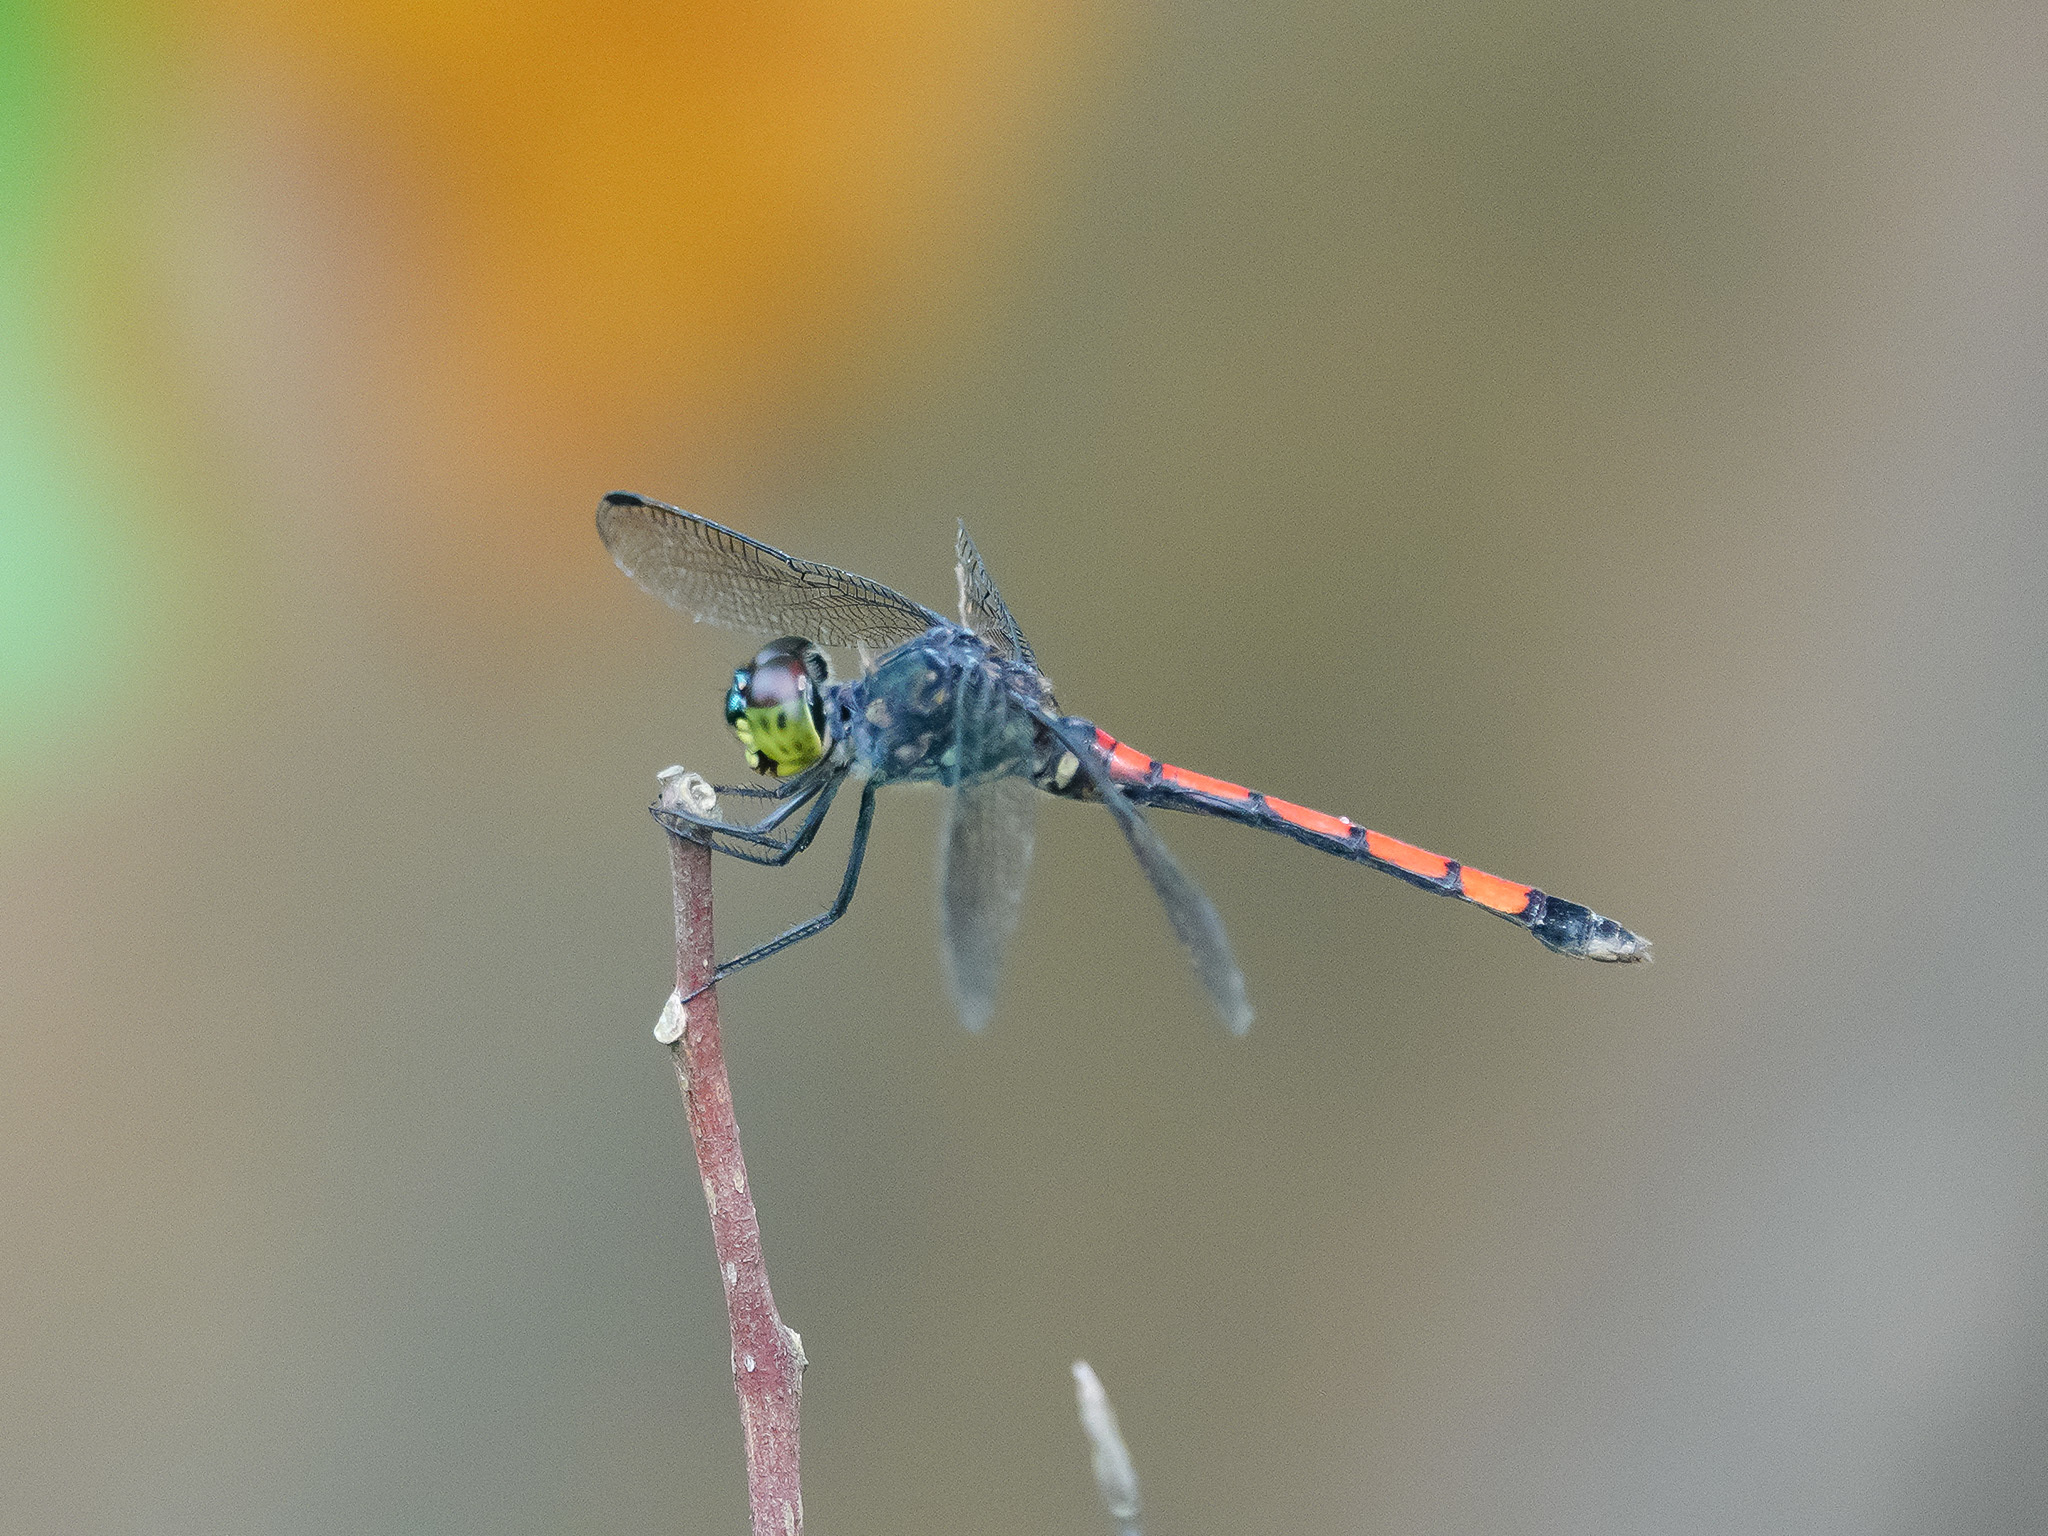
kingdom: Animalia
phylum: Arthropoda
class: Insecta
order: Odonata
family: Libellulidae
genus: Agrionoptera
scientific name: Agrionoptera insignis
